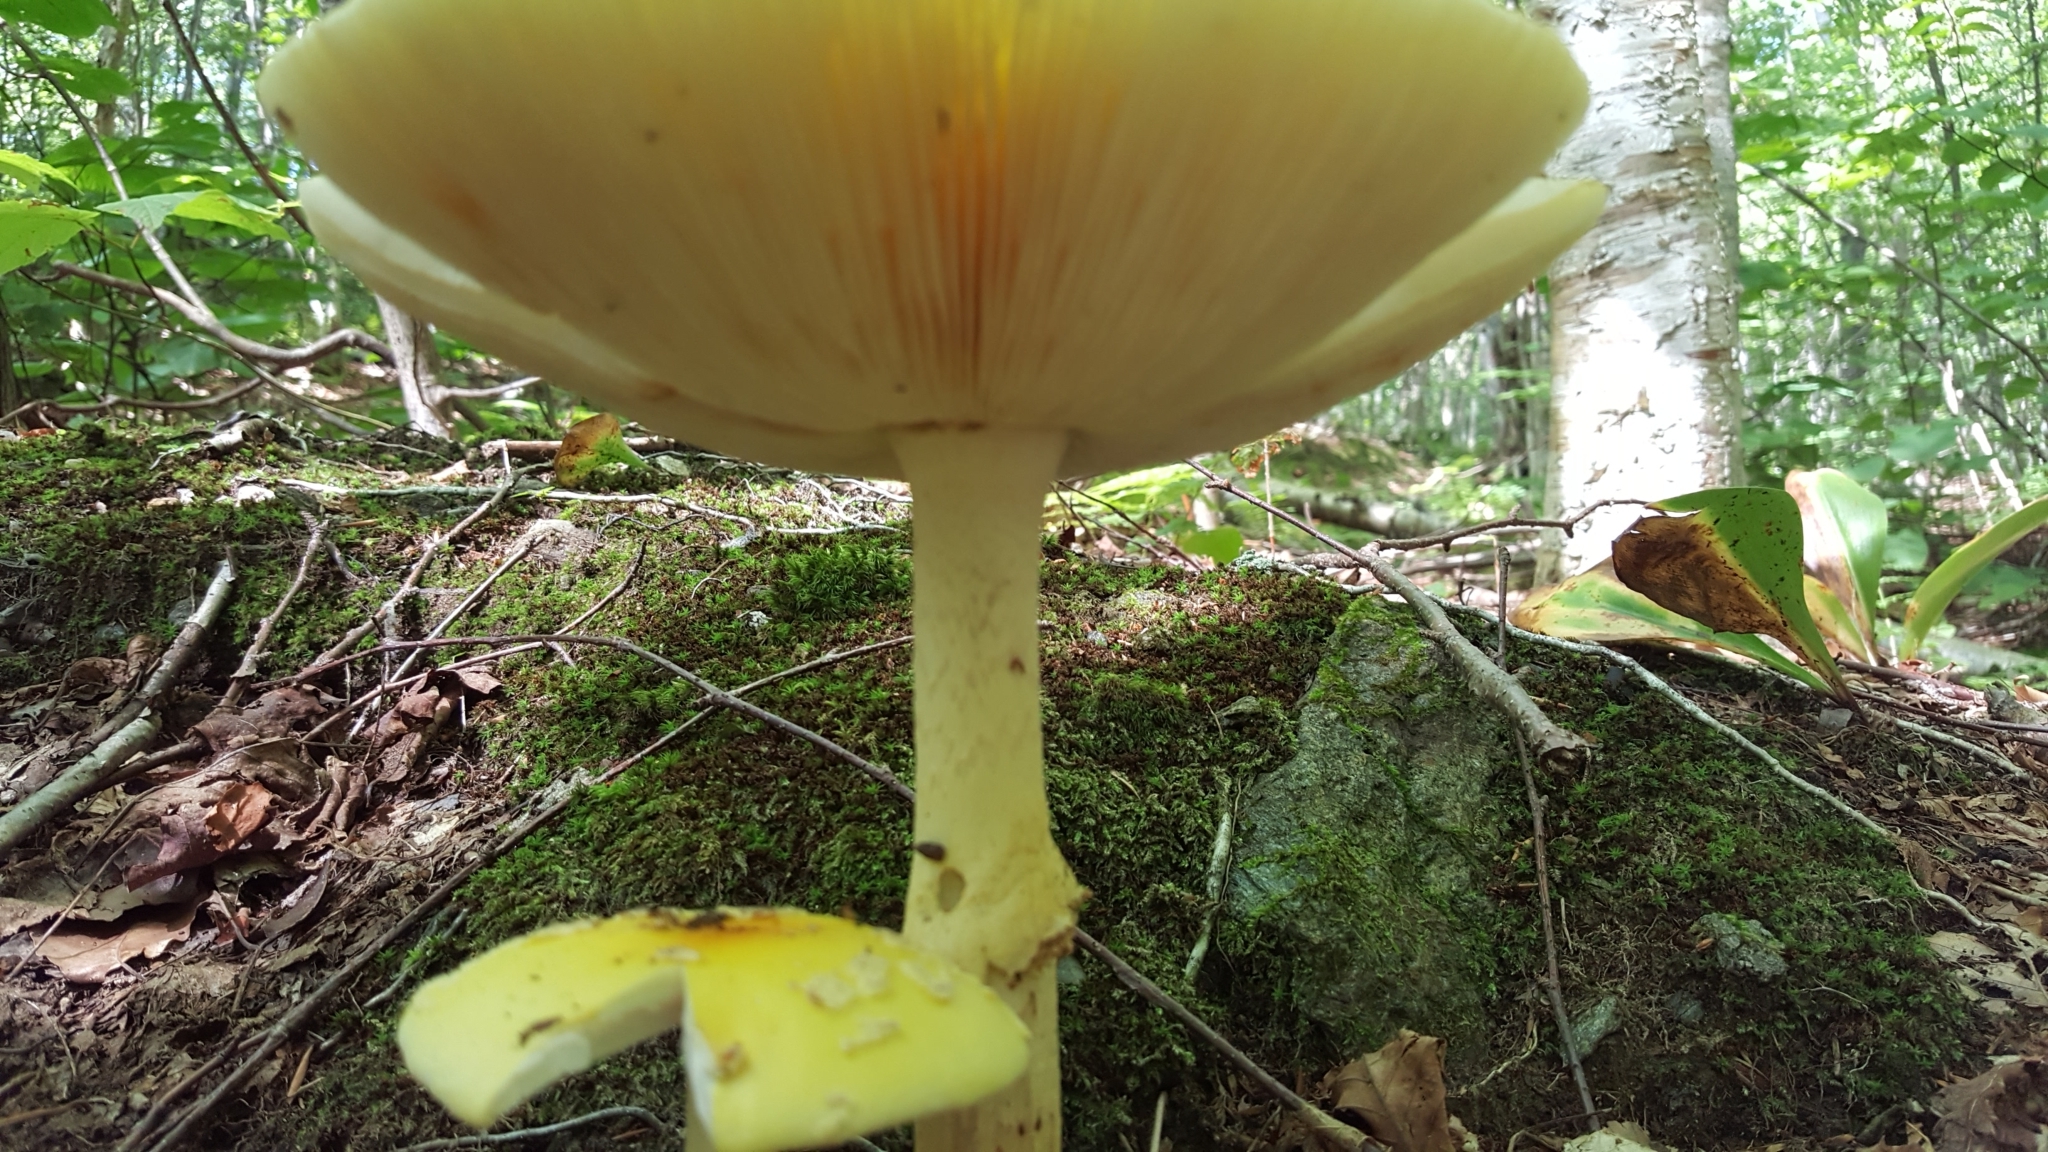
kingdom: Fungi
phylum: Basidiomycota
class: Agaricomycetes
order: Agaricales
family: Amanitaceae
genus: Amanita
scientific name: Amanita muscaria
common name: Fly agaric
